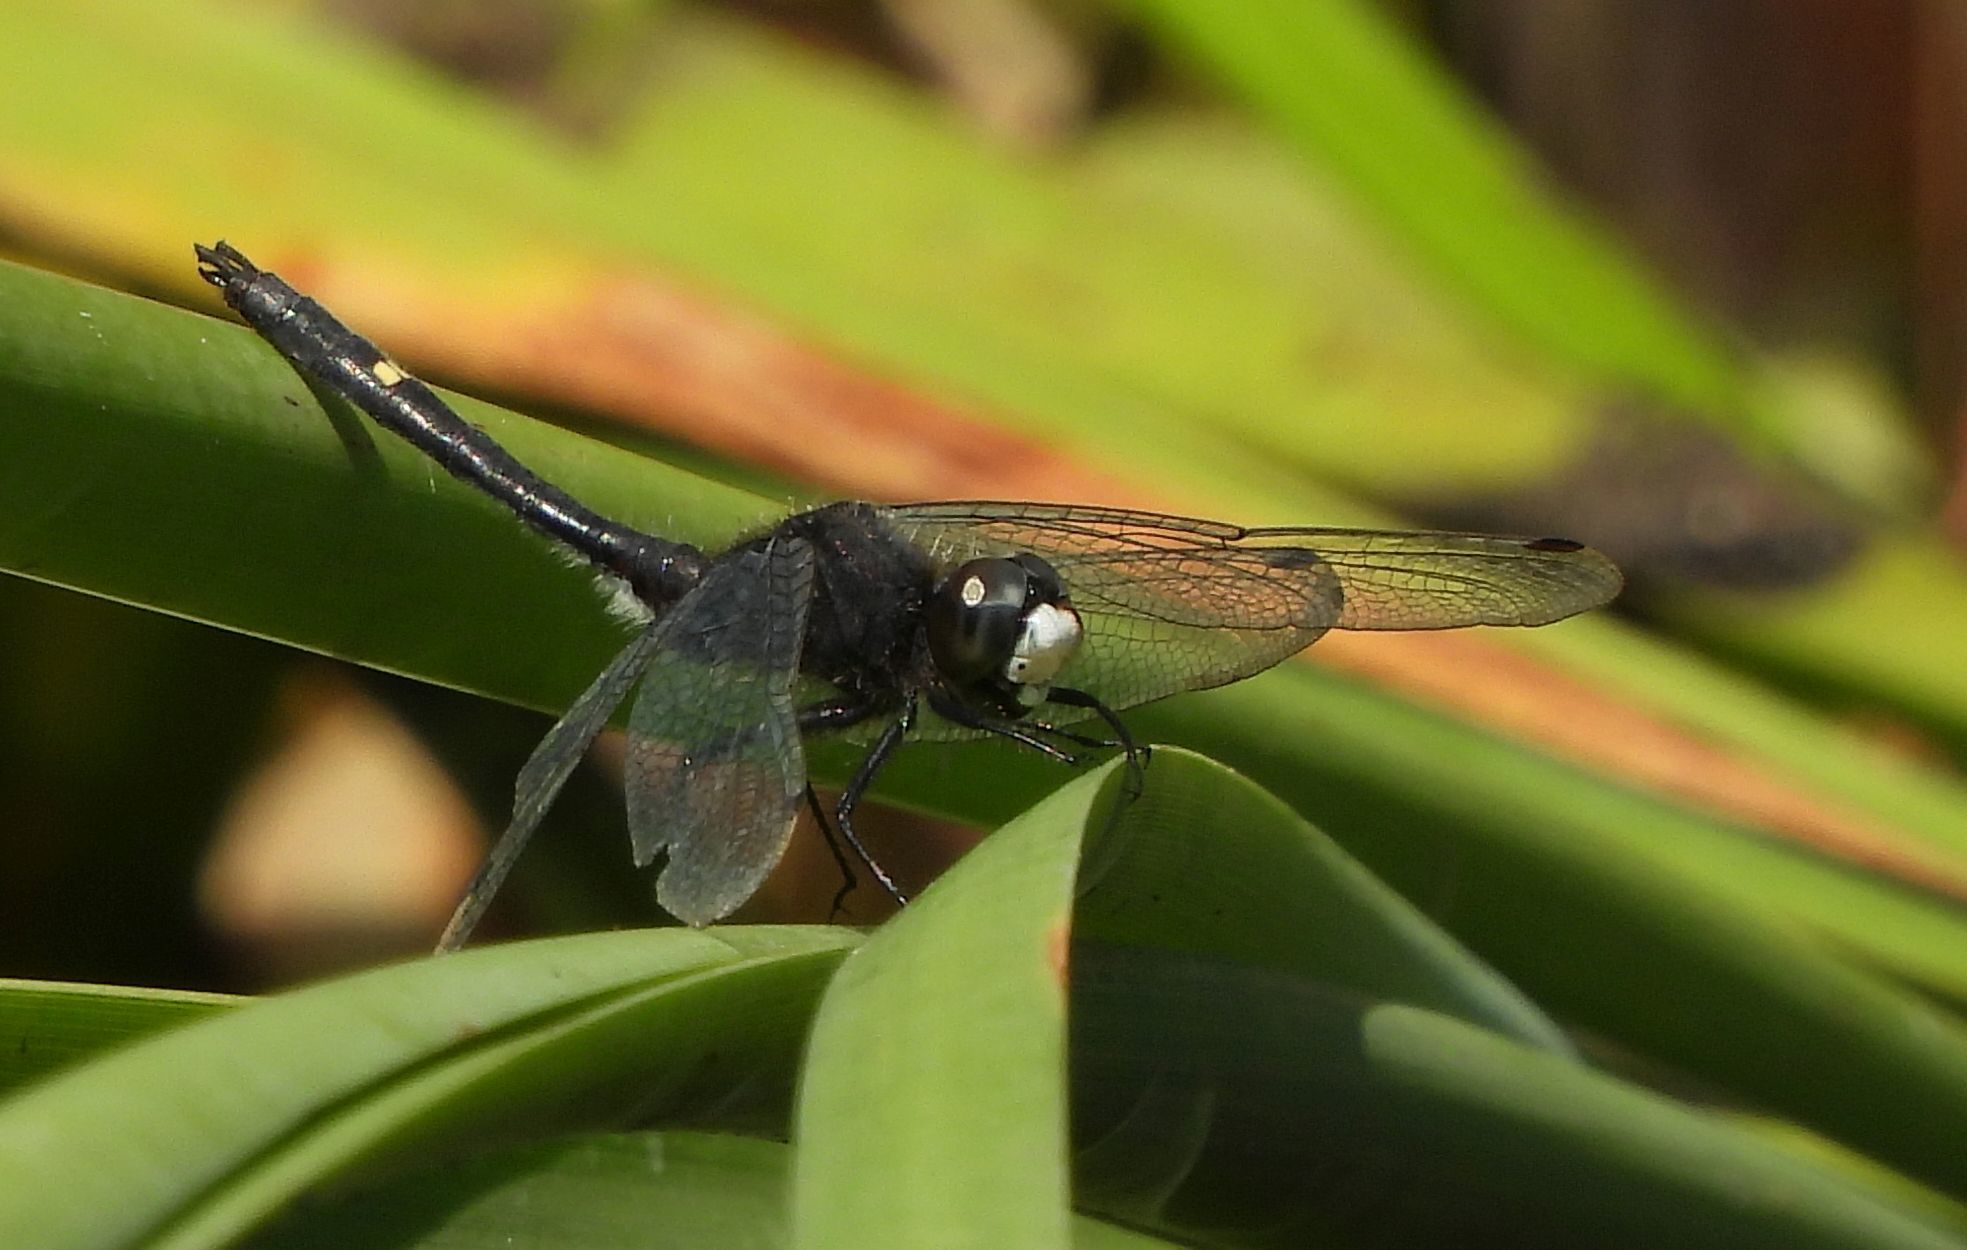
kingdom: Animalia
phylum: Arthropoda
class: Insecta
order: Odonata
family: Libellulidae
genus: Leucorrhinia
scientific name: Leucorrhinia intacta
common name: Dot-tailed whiteface
